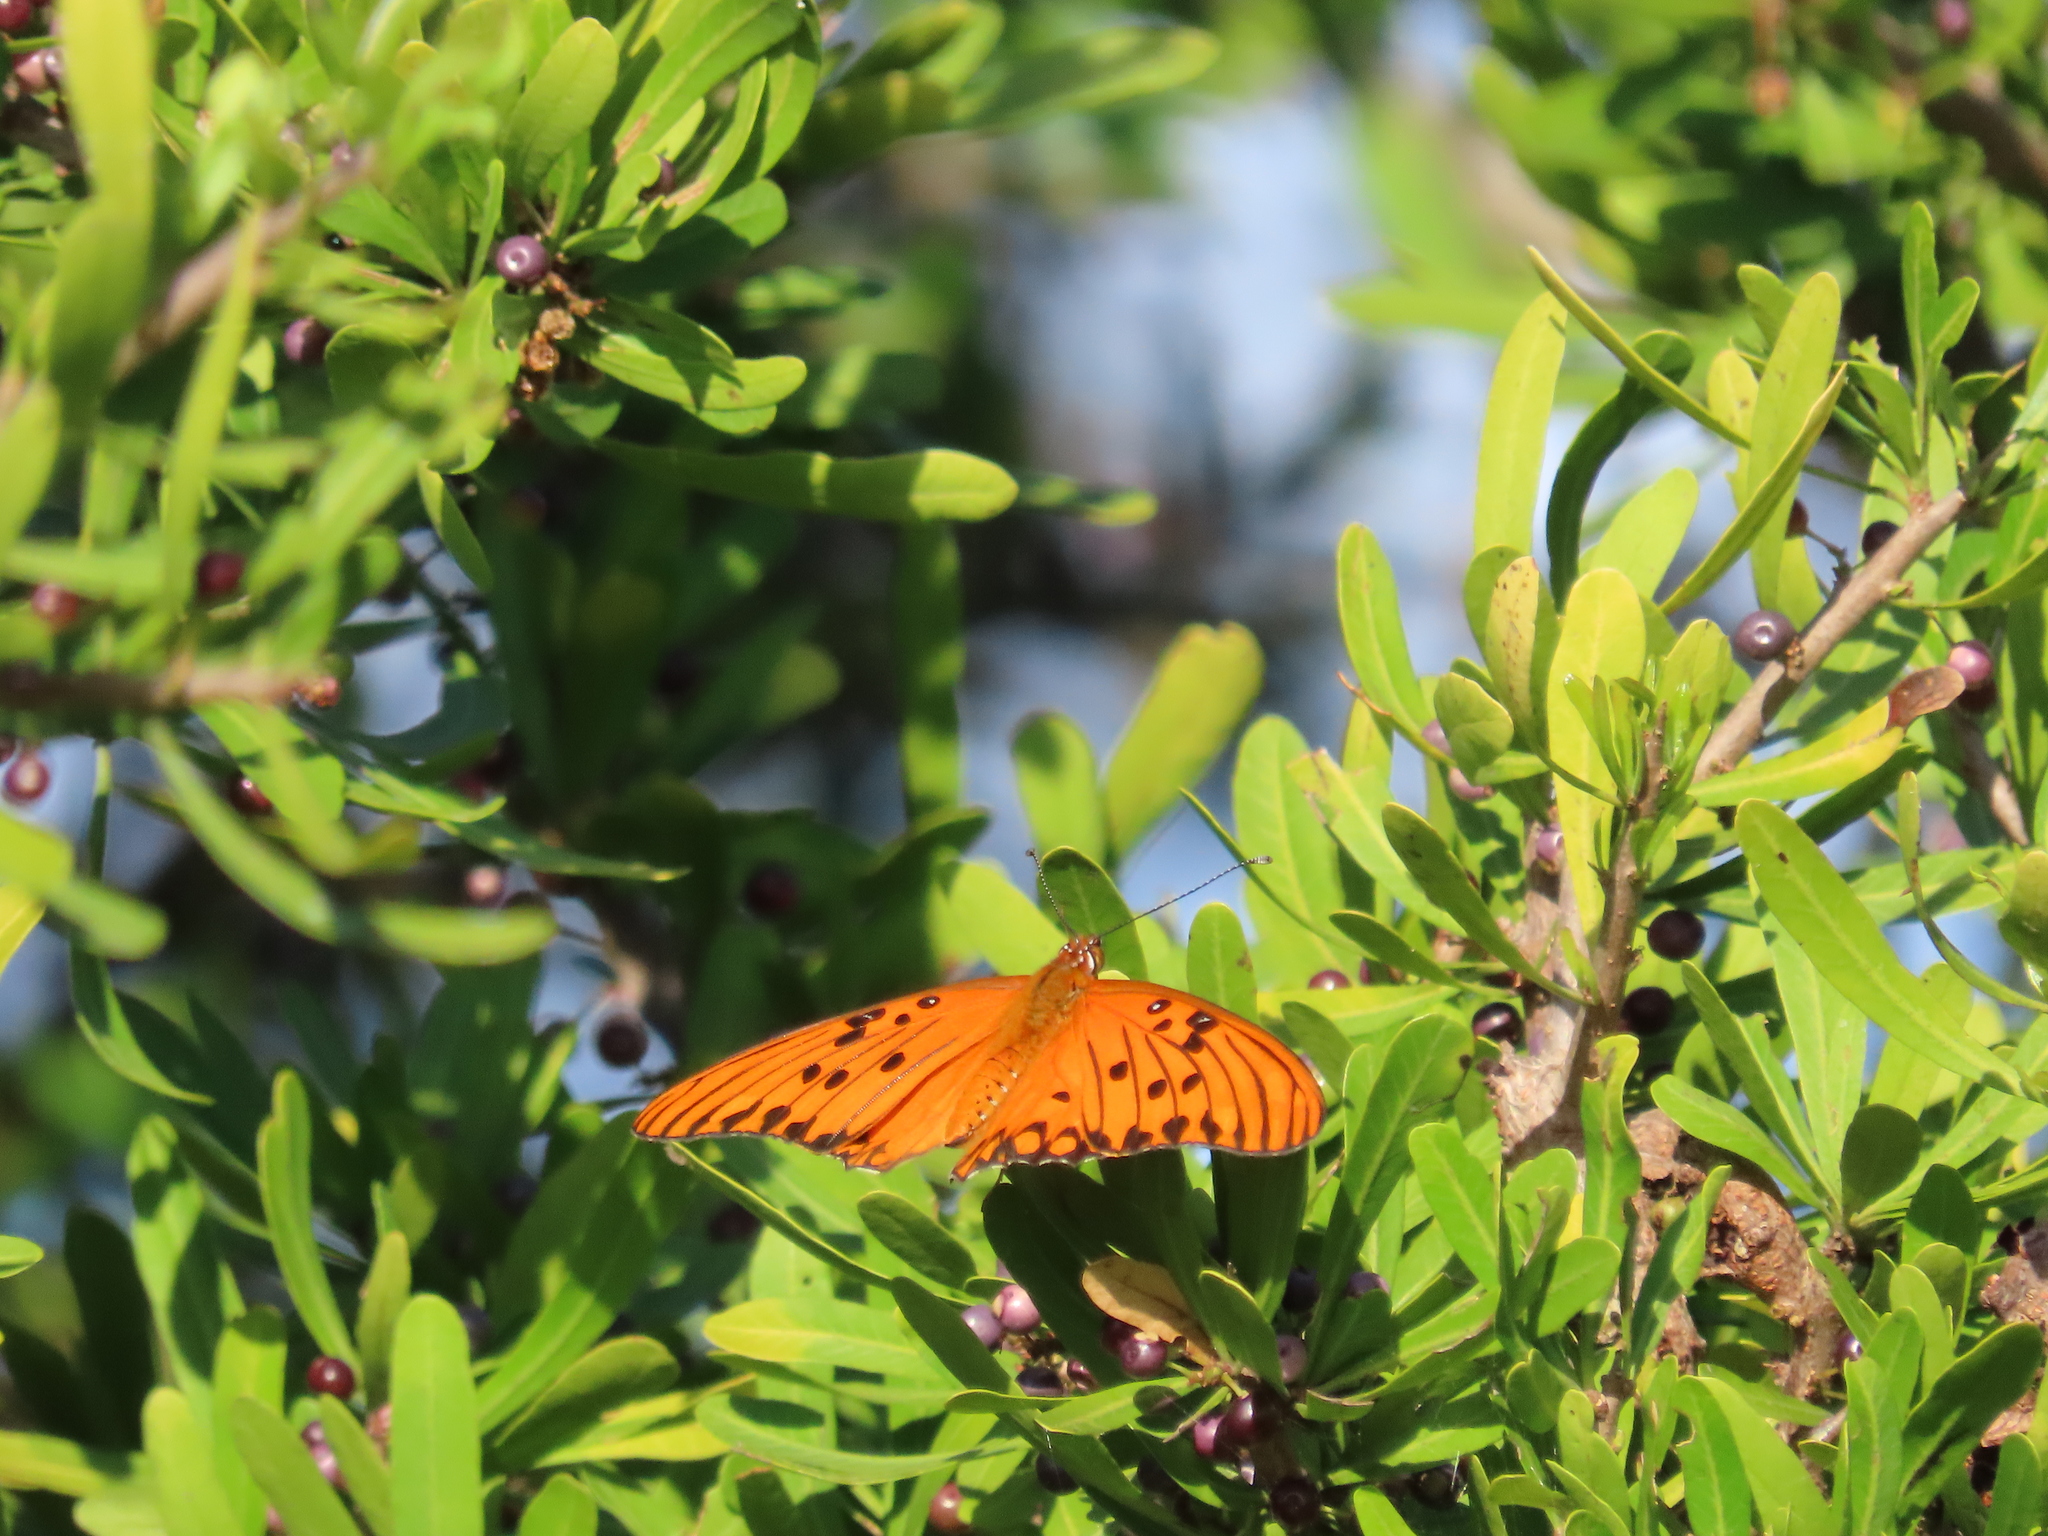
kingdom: Animalia
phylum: Arthropoda
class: Insecta
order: Lepidoptera
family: Nymphalidae
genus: Dione
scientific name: Dione vanillae
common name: Gulf fritillary
